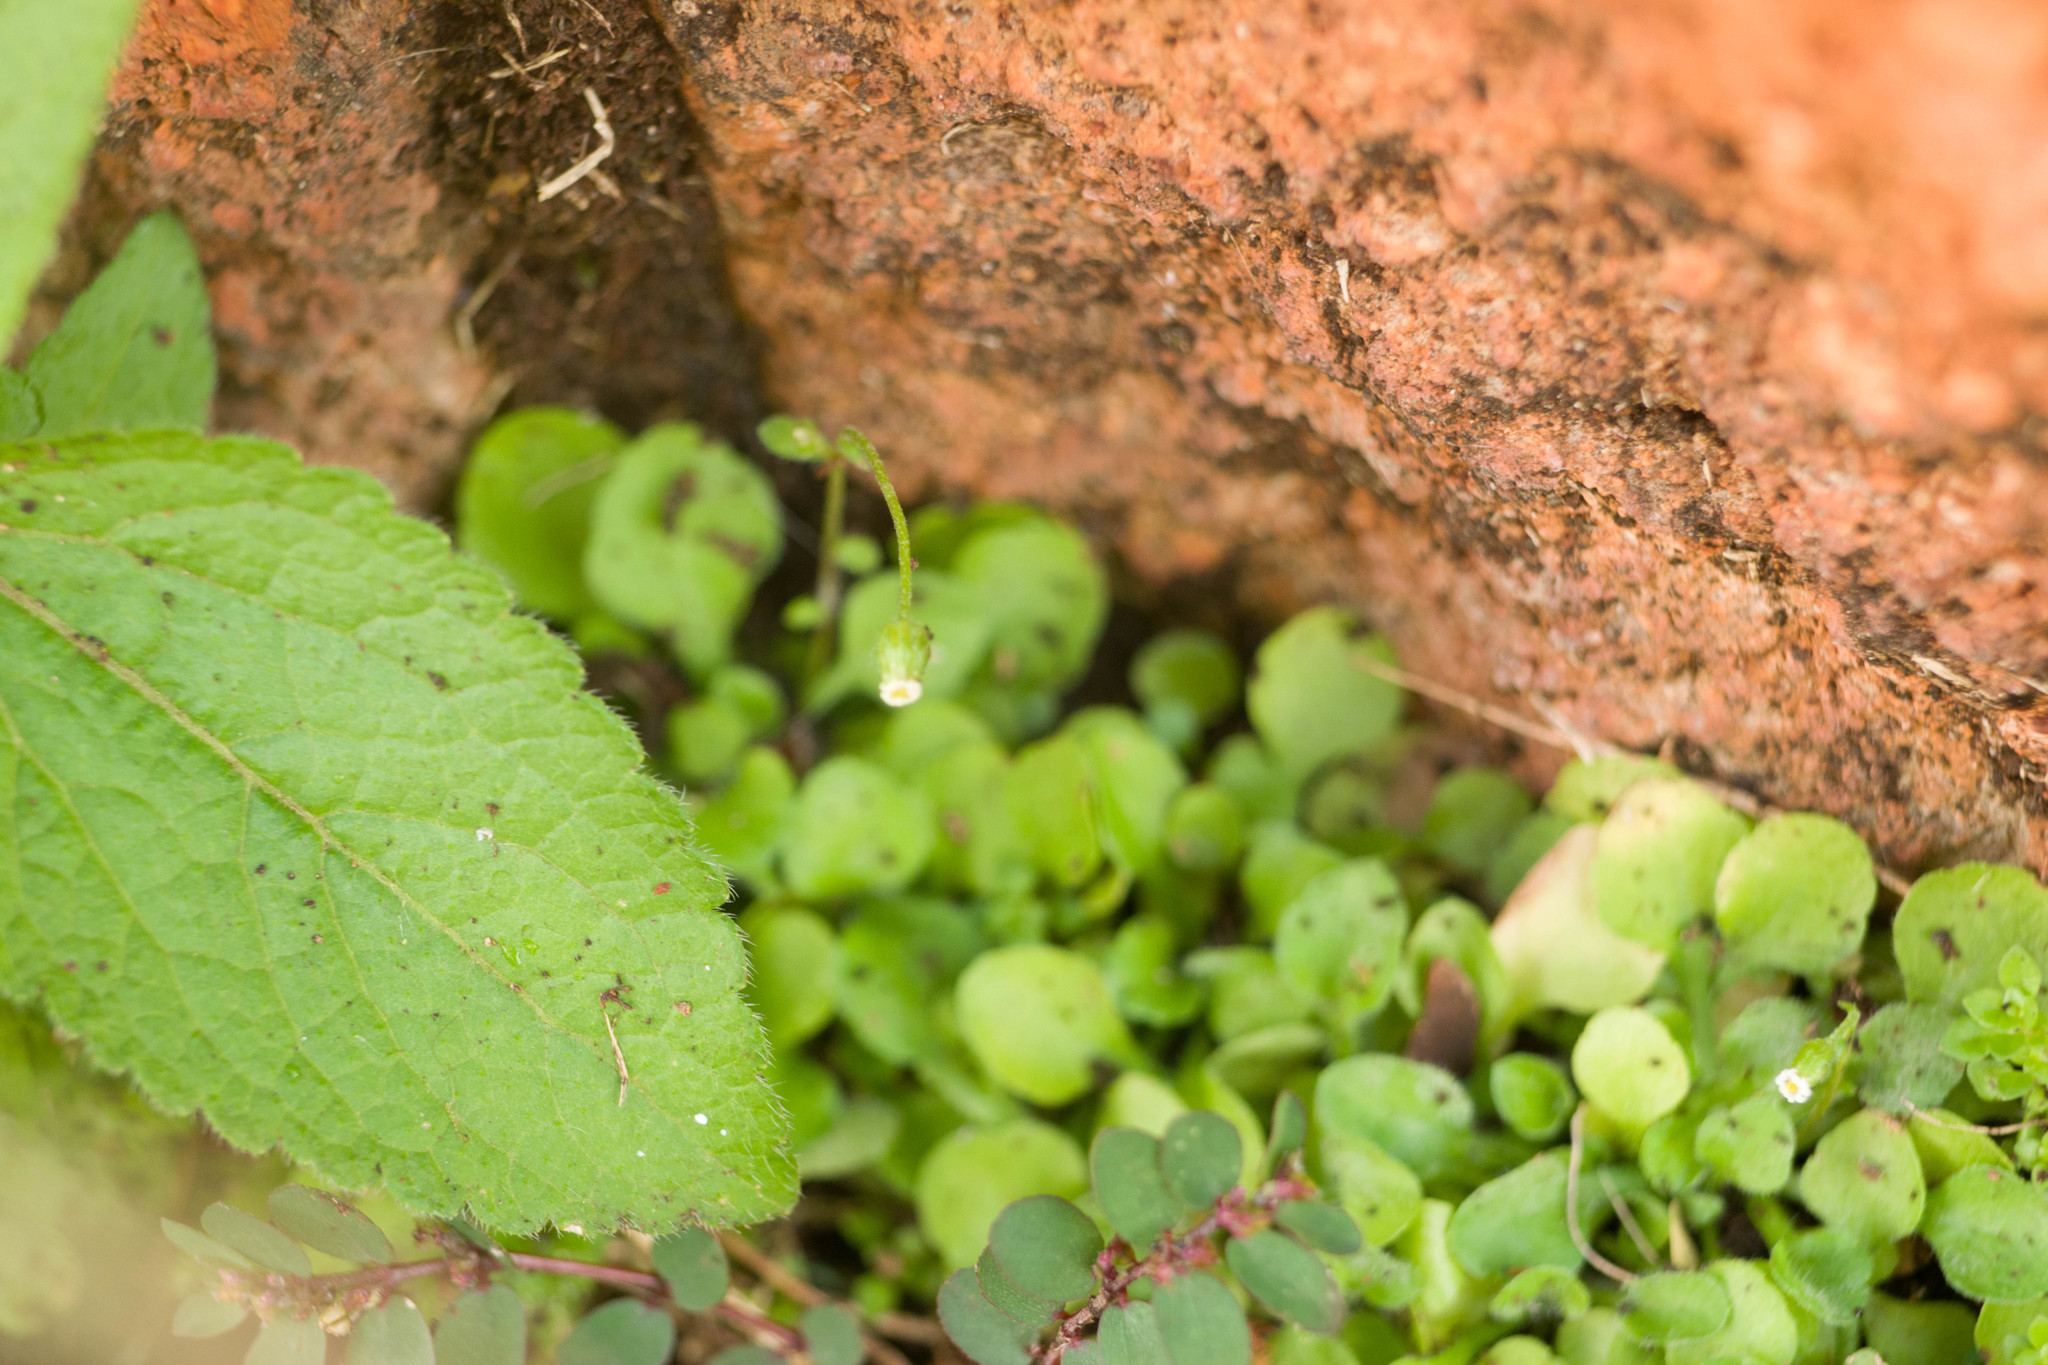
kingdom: Plantae
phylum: Tracheophyta
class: Magnoliopsida
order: Asterales
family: Asteraceae
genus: Erigeron
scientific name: Erigeron bellioides
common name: Bellorita
